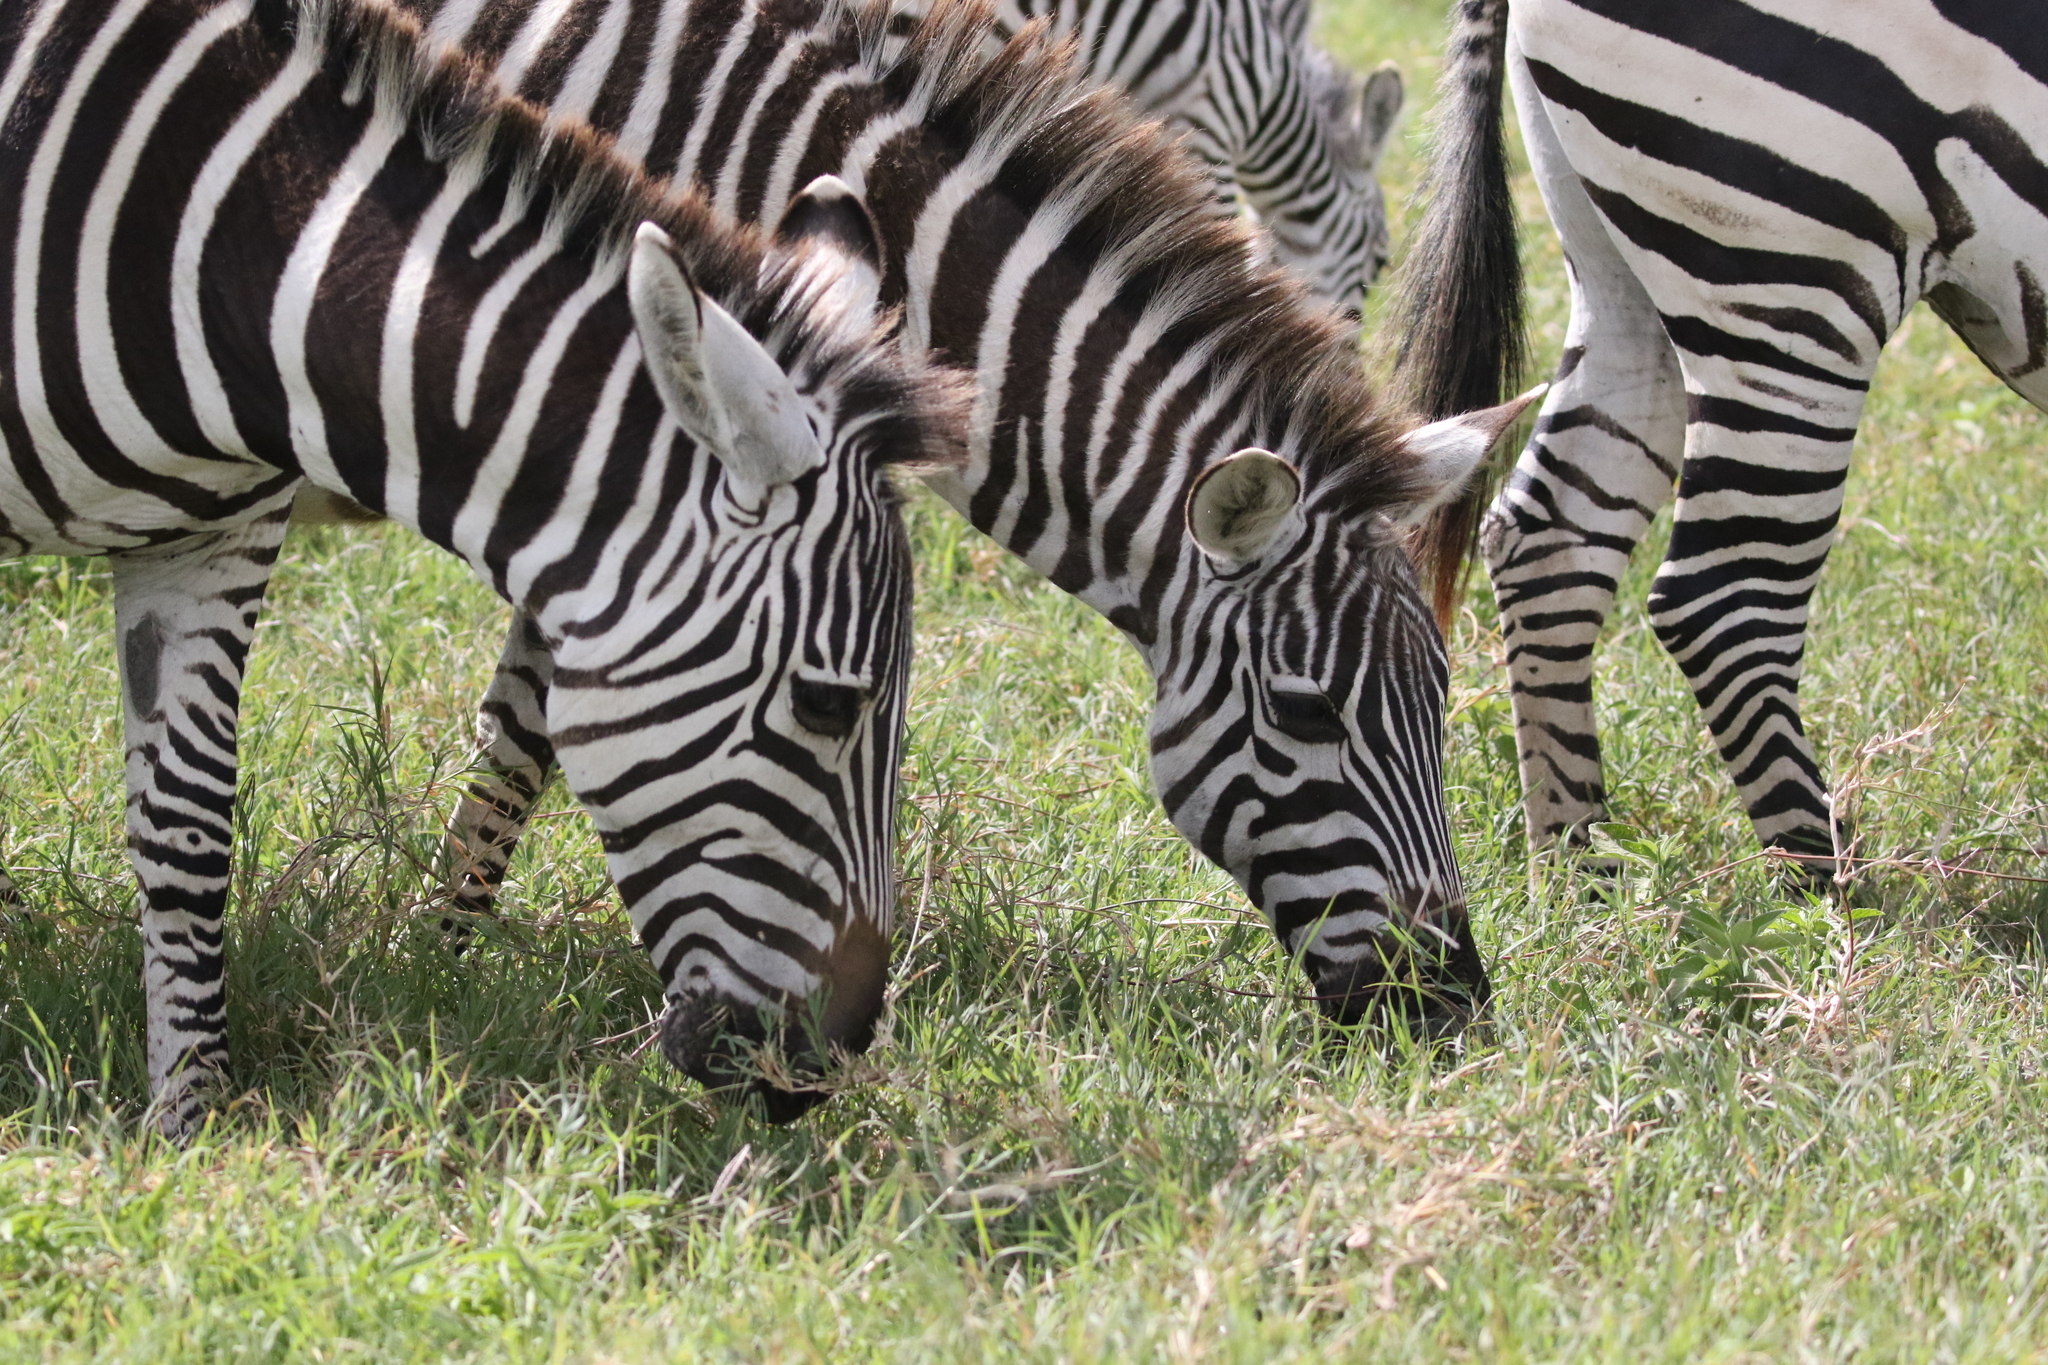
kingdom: Animalia
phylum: Chordata
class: Mammalia
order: Perissodactyla
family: Equidae
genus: Equus
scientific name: Equus quagga
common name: Plains zebra
